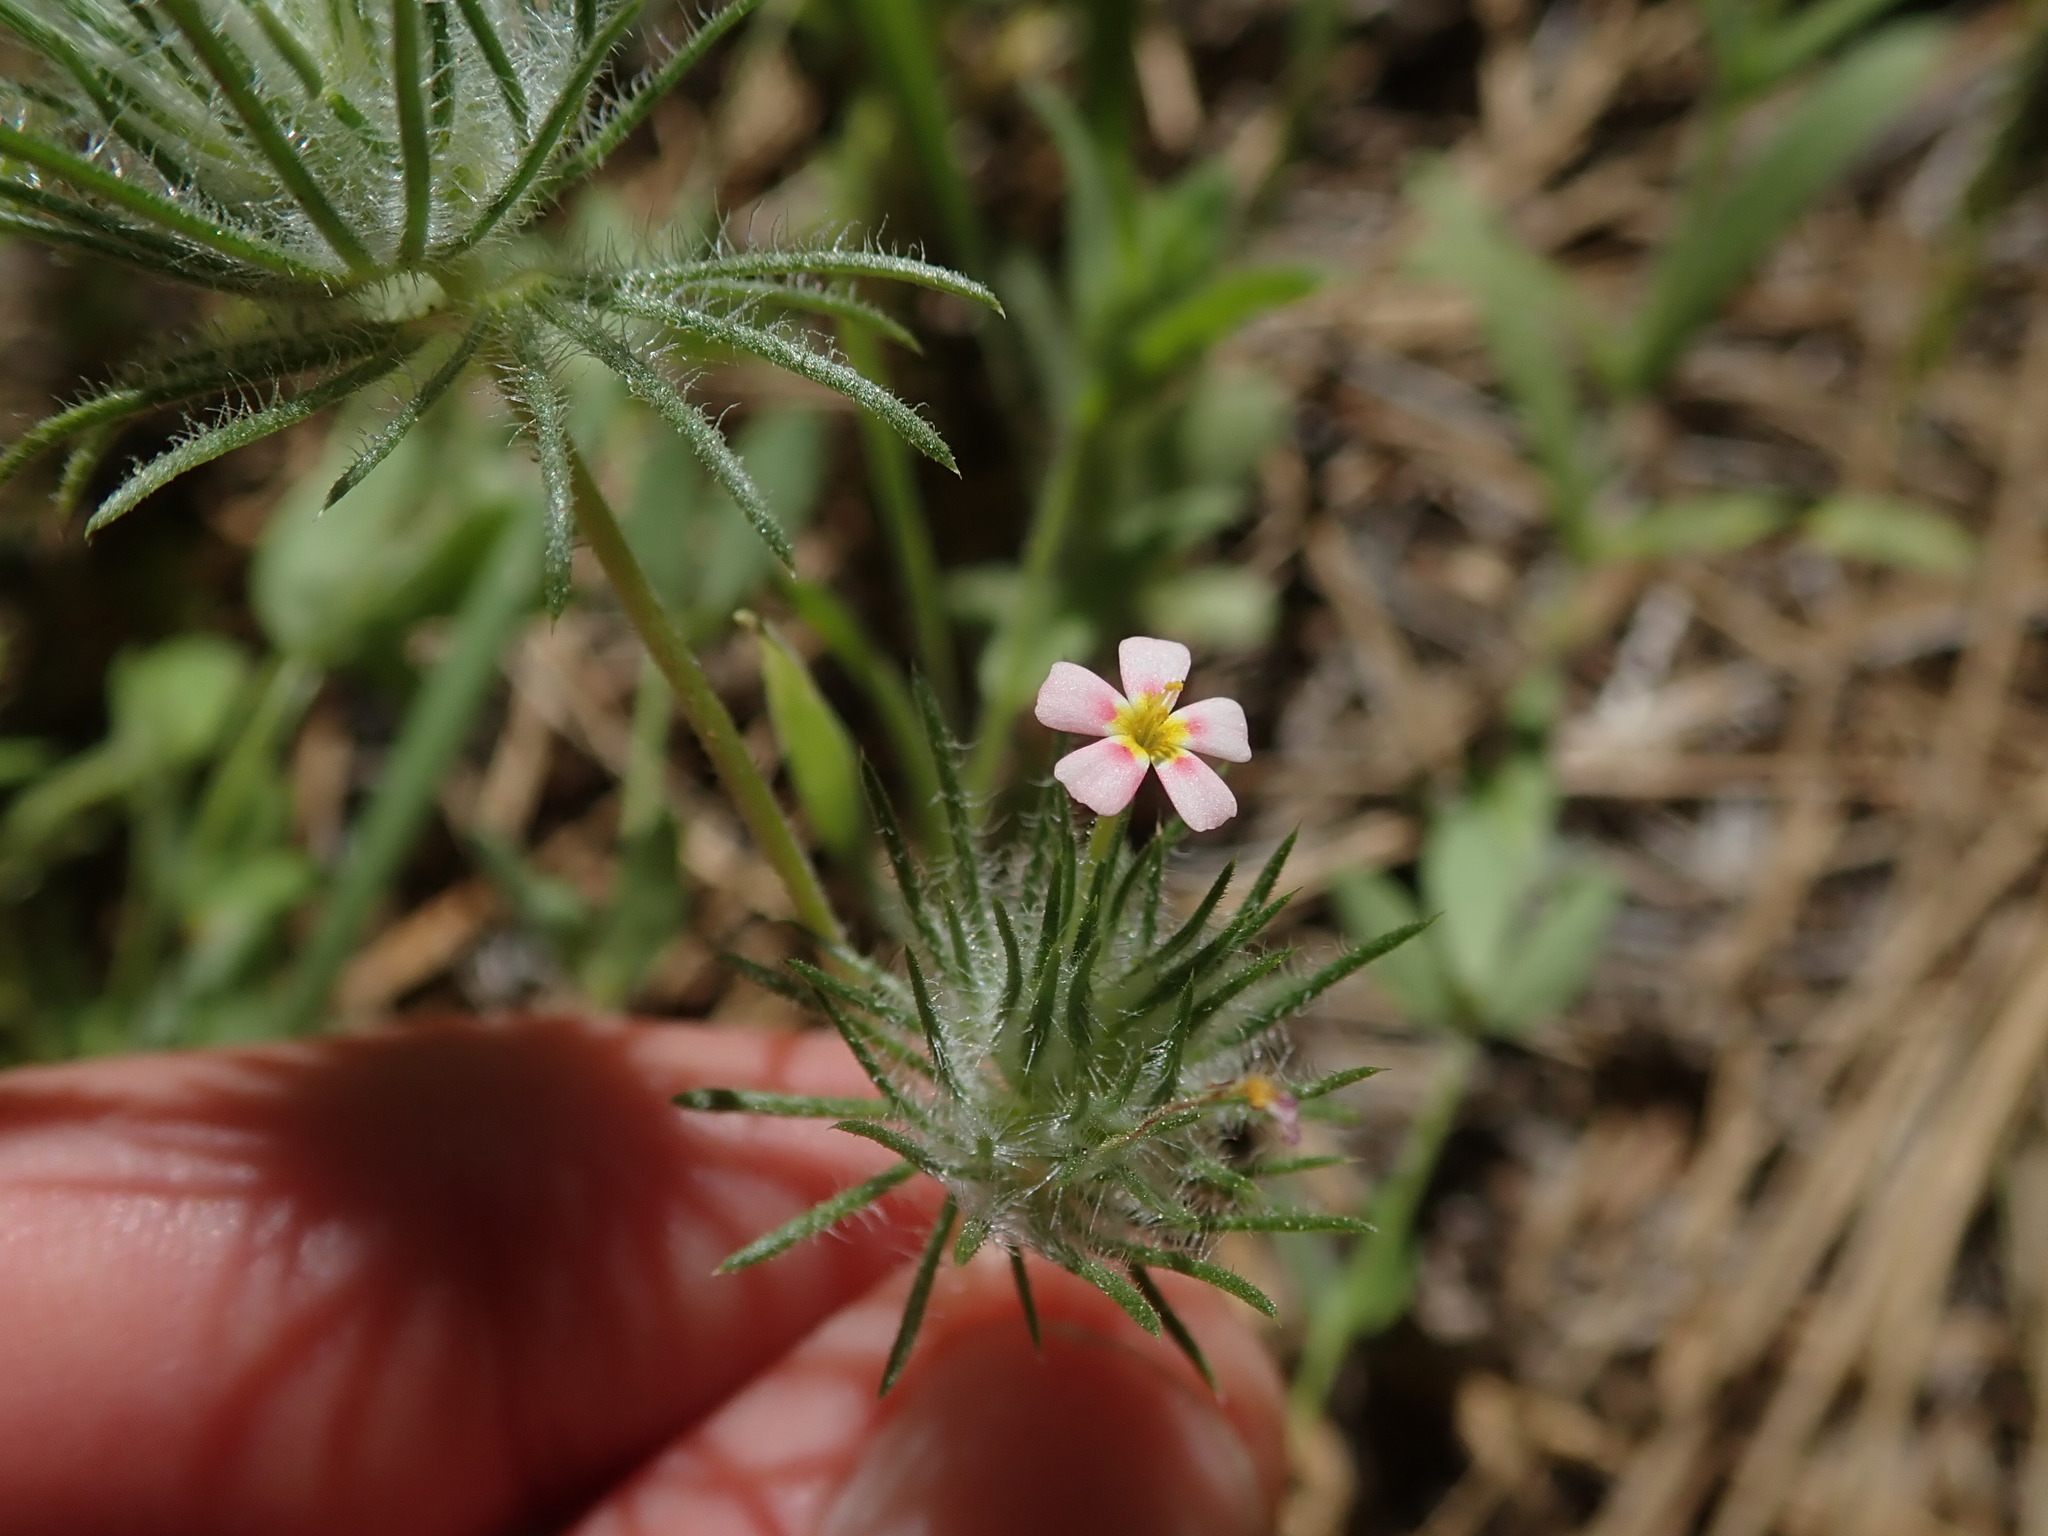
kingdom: Plantae
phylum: Tracheophyta
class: Magnoliopsida
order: Ericales
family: Polemoniaceae
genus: Leptosiphon
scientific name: Leptosiphon ciliatus
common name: Whiskerbrush
